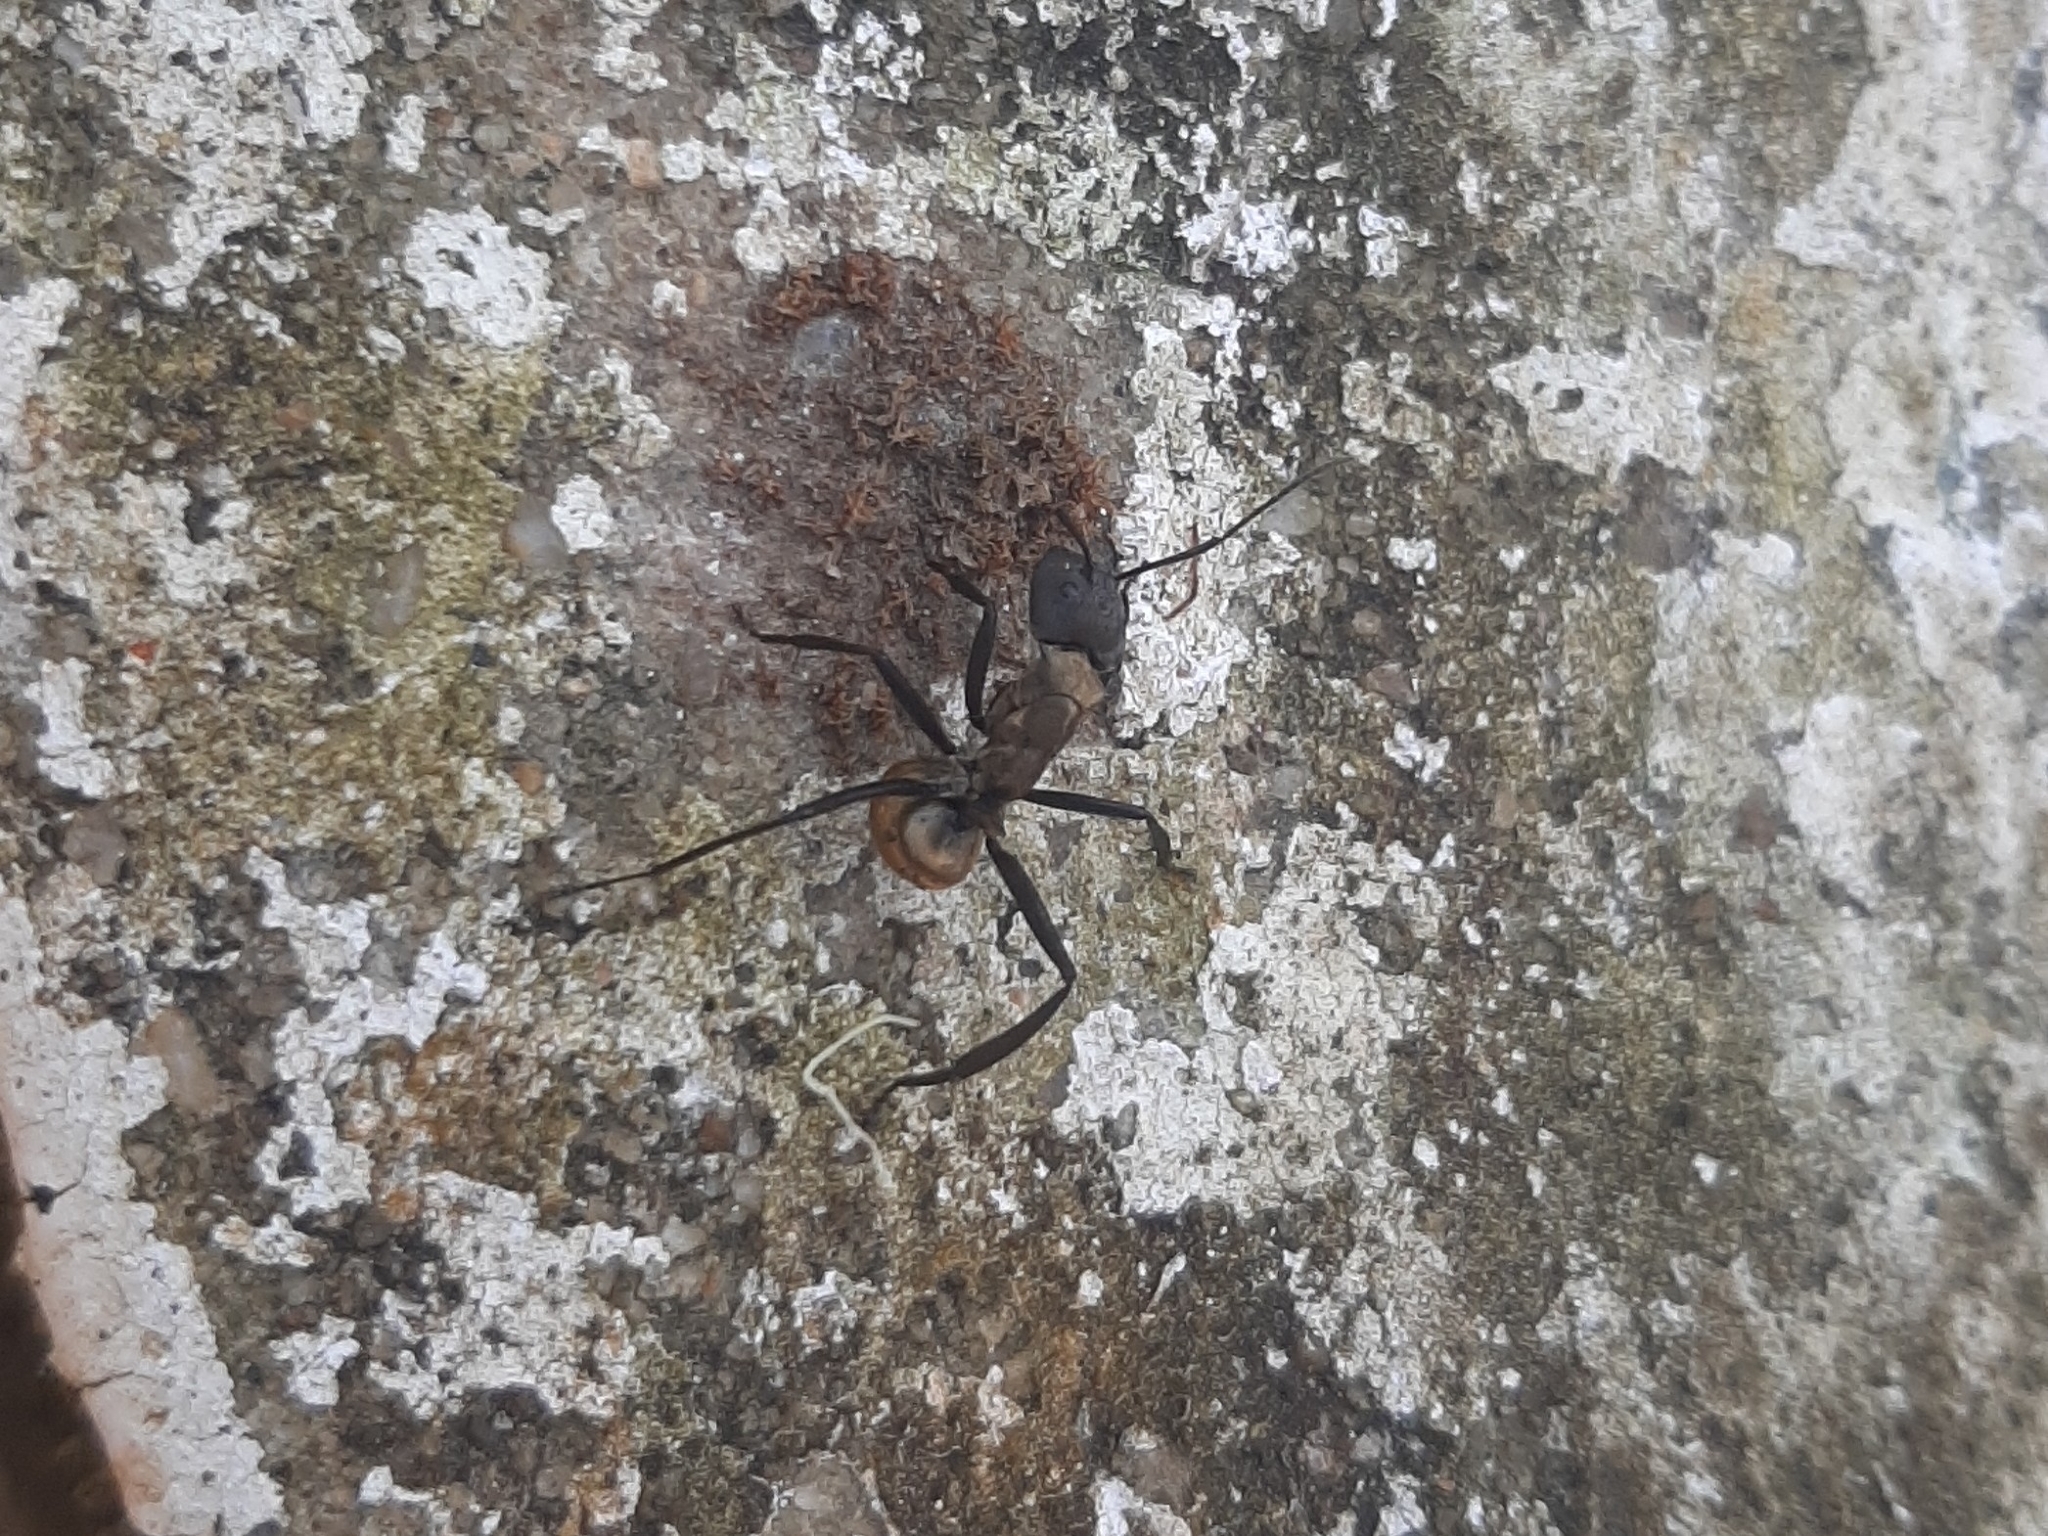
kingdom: Animalia
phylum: Arthropoda
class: Insecta
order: Hymenoptera
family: Formicidae
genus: Camponotus
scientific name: Camponotus sericeiventris
